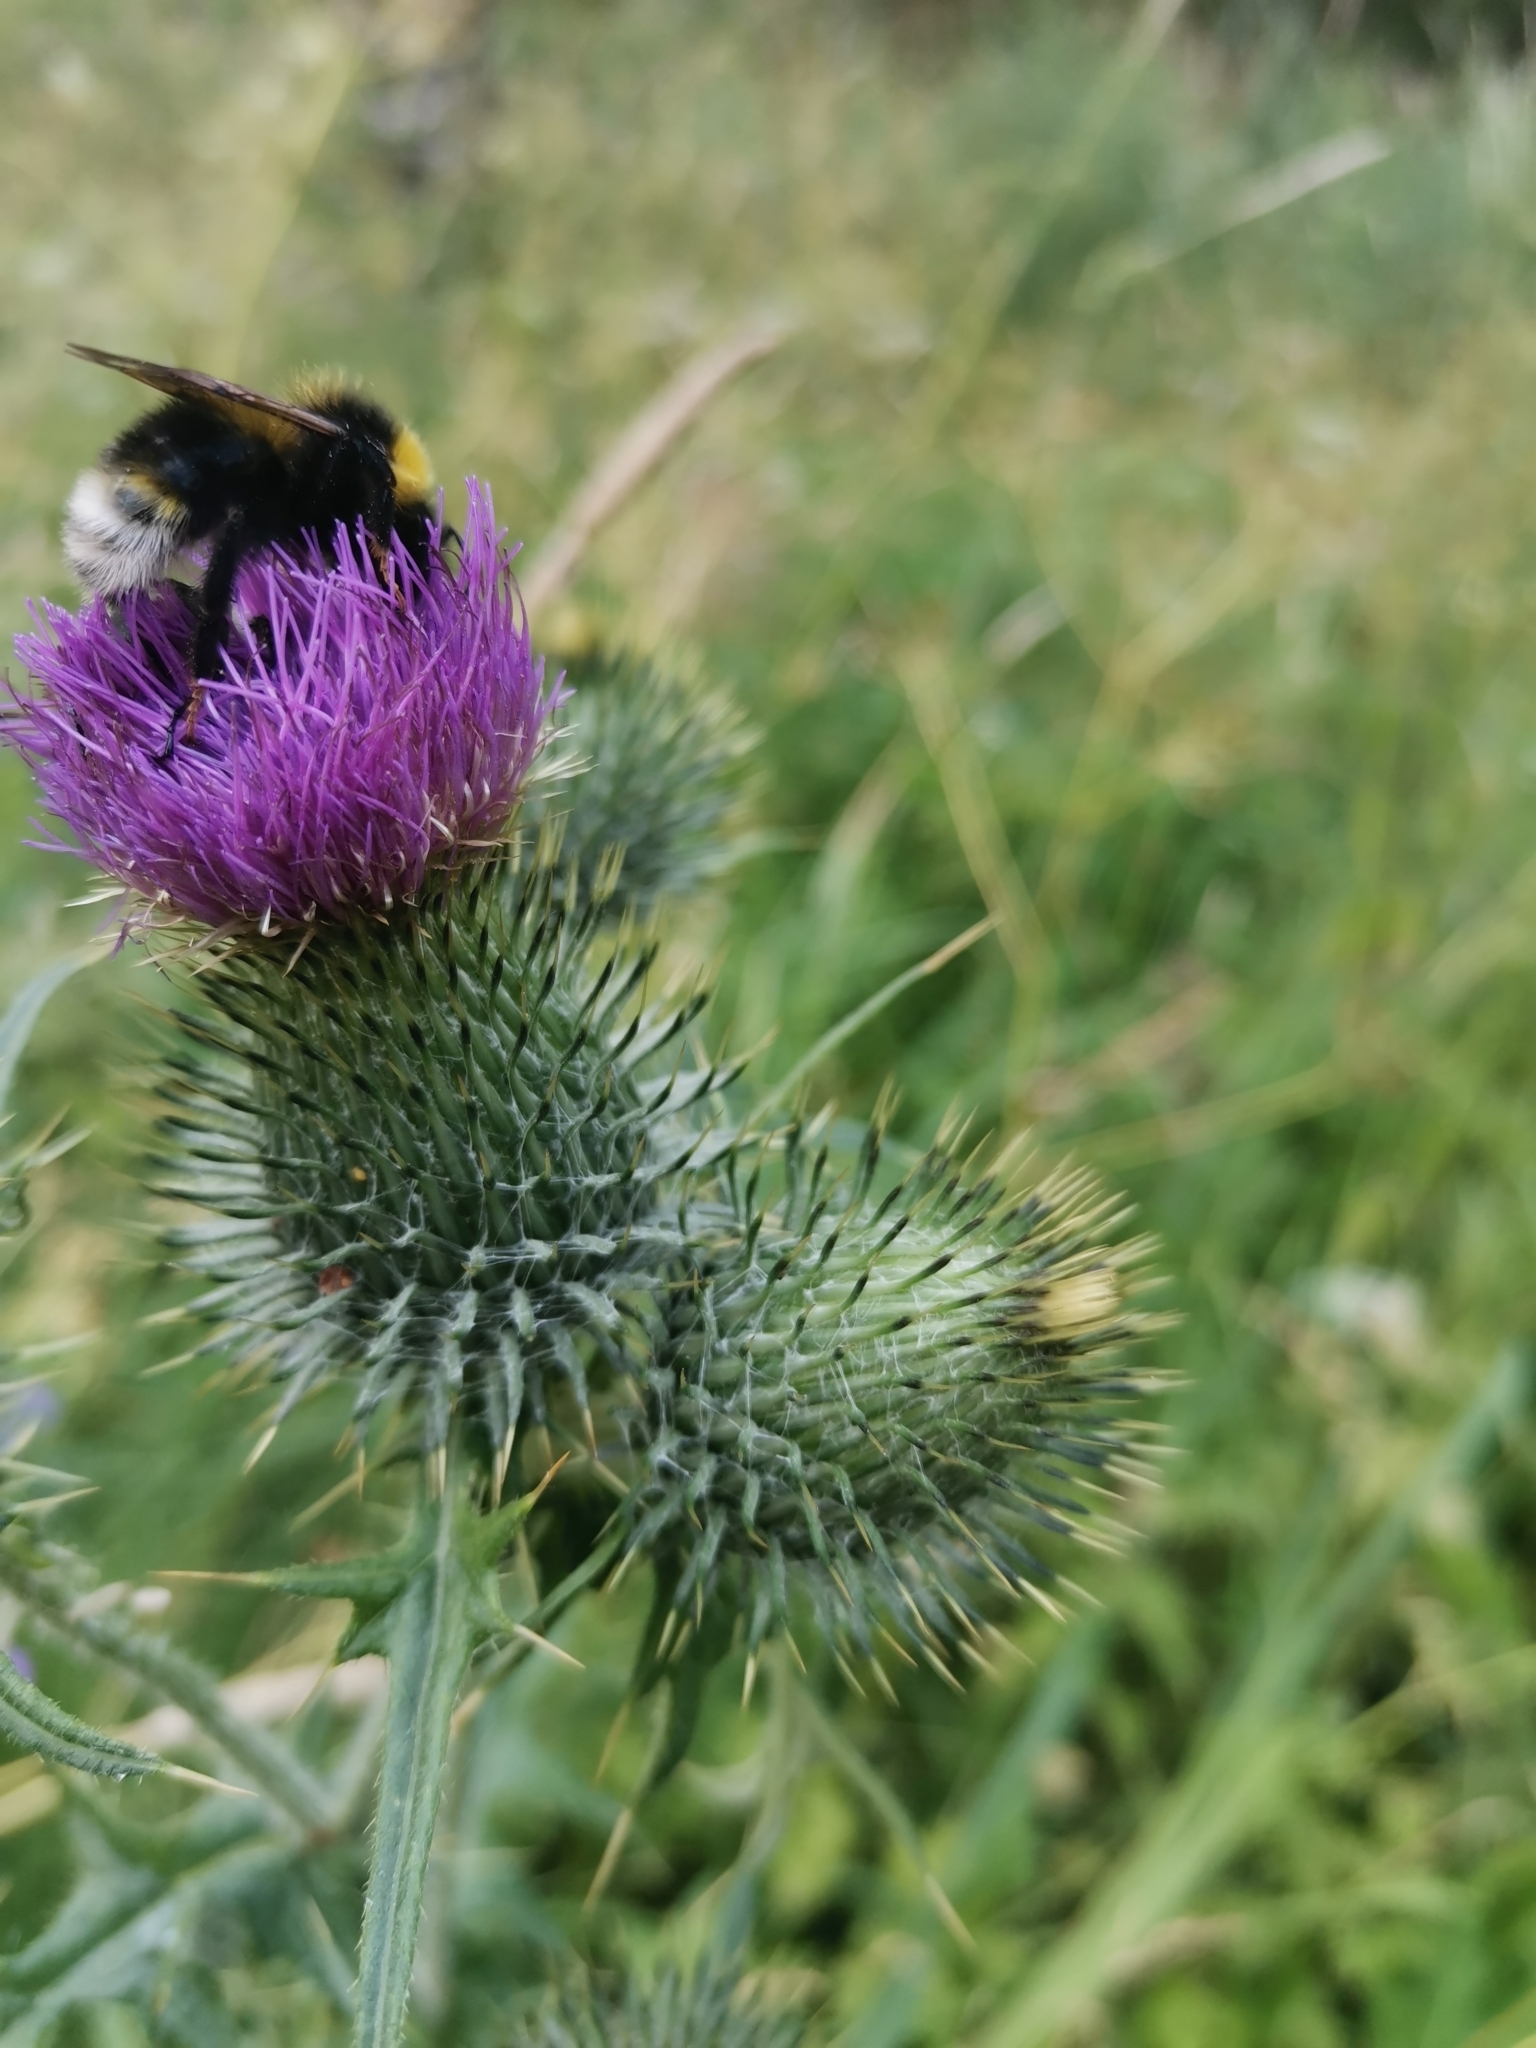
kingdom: Plantae
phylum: Tracheophyta
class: Magnoliopsida
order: Asterales
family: Asteraceae
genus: Cirsium
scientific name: Cirsium vulgare
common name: Bull thistle
